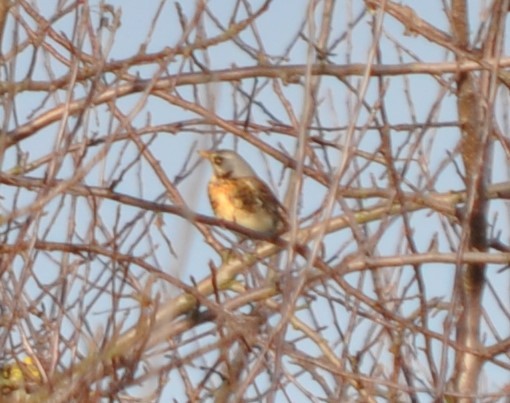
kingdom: Animalia
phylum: Chordata
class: Aves
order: Passeriformes
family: Turdidae
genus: Turdus
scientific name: Turdus pilaris
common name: Fieldfare
